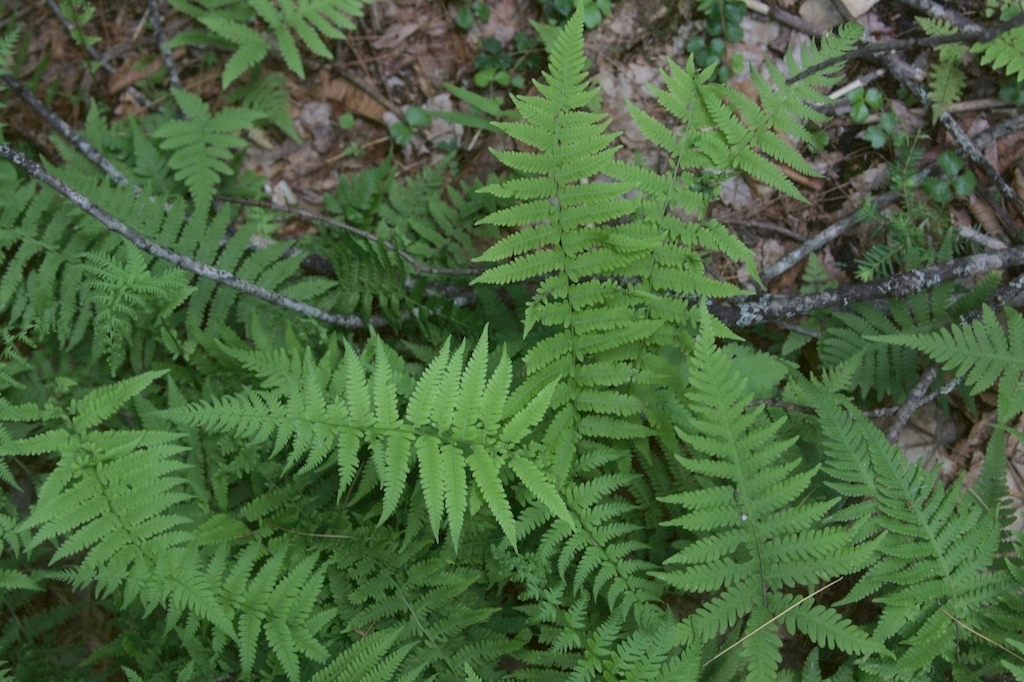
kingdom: Plantae
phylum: Tracheophyta
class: Polypodiopsida
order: Polypodiales
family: Thelypteridaceae
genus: Amauropelta
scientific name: Amauropelta noveboracensis
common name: New york fern
